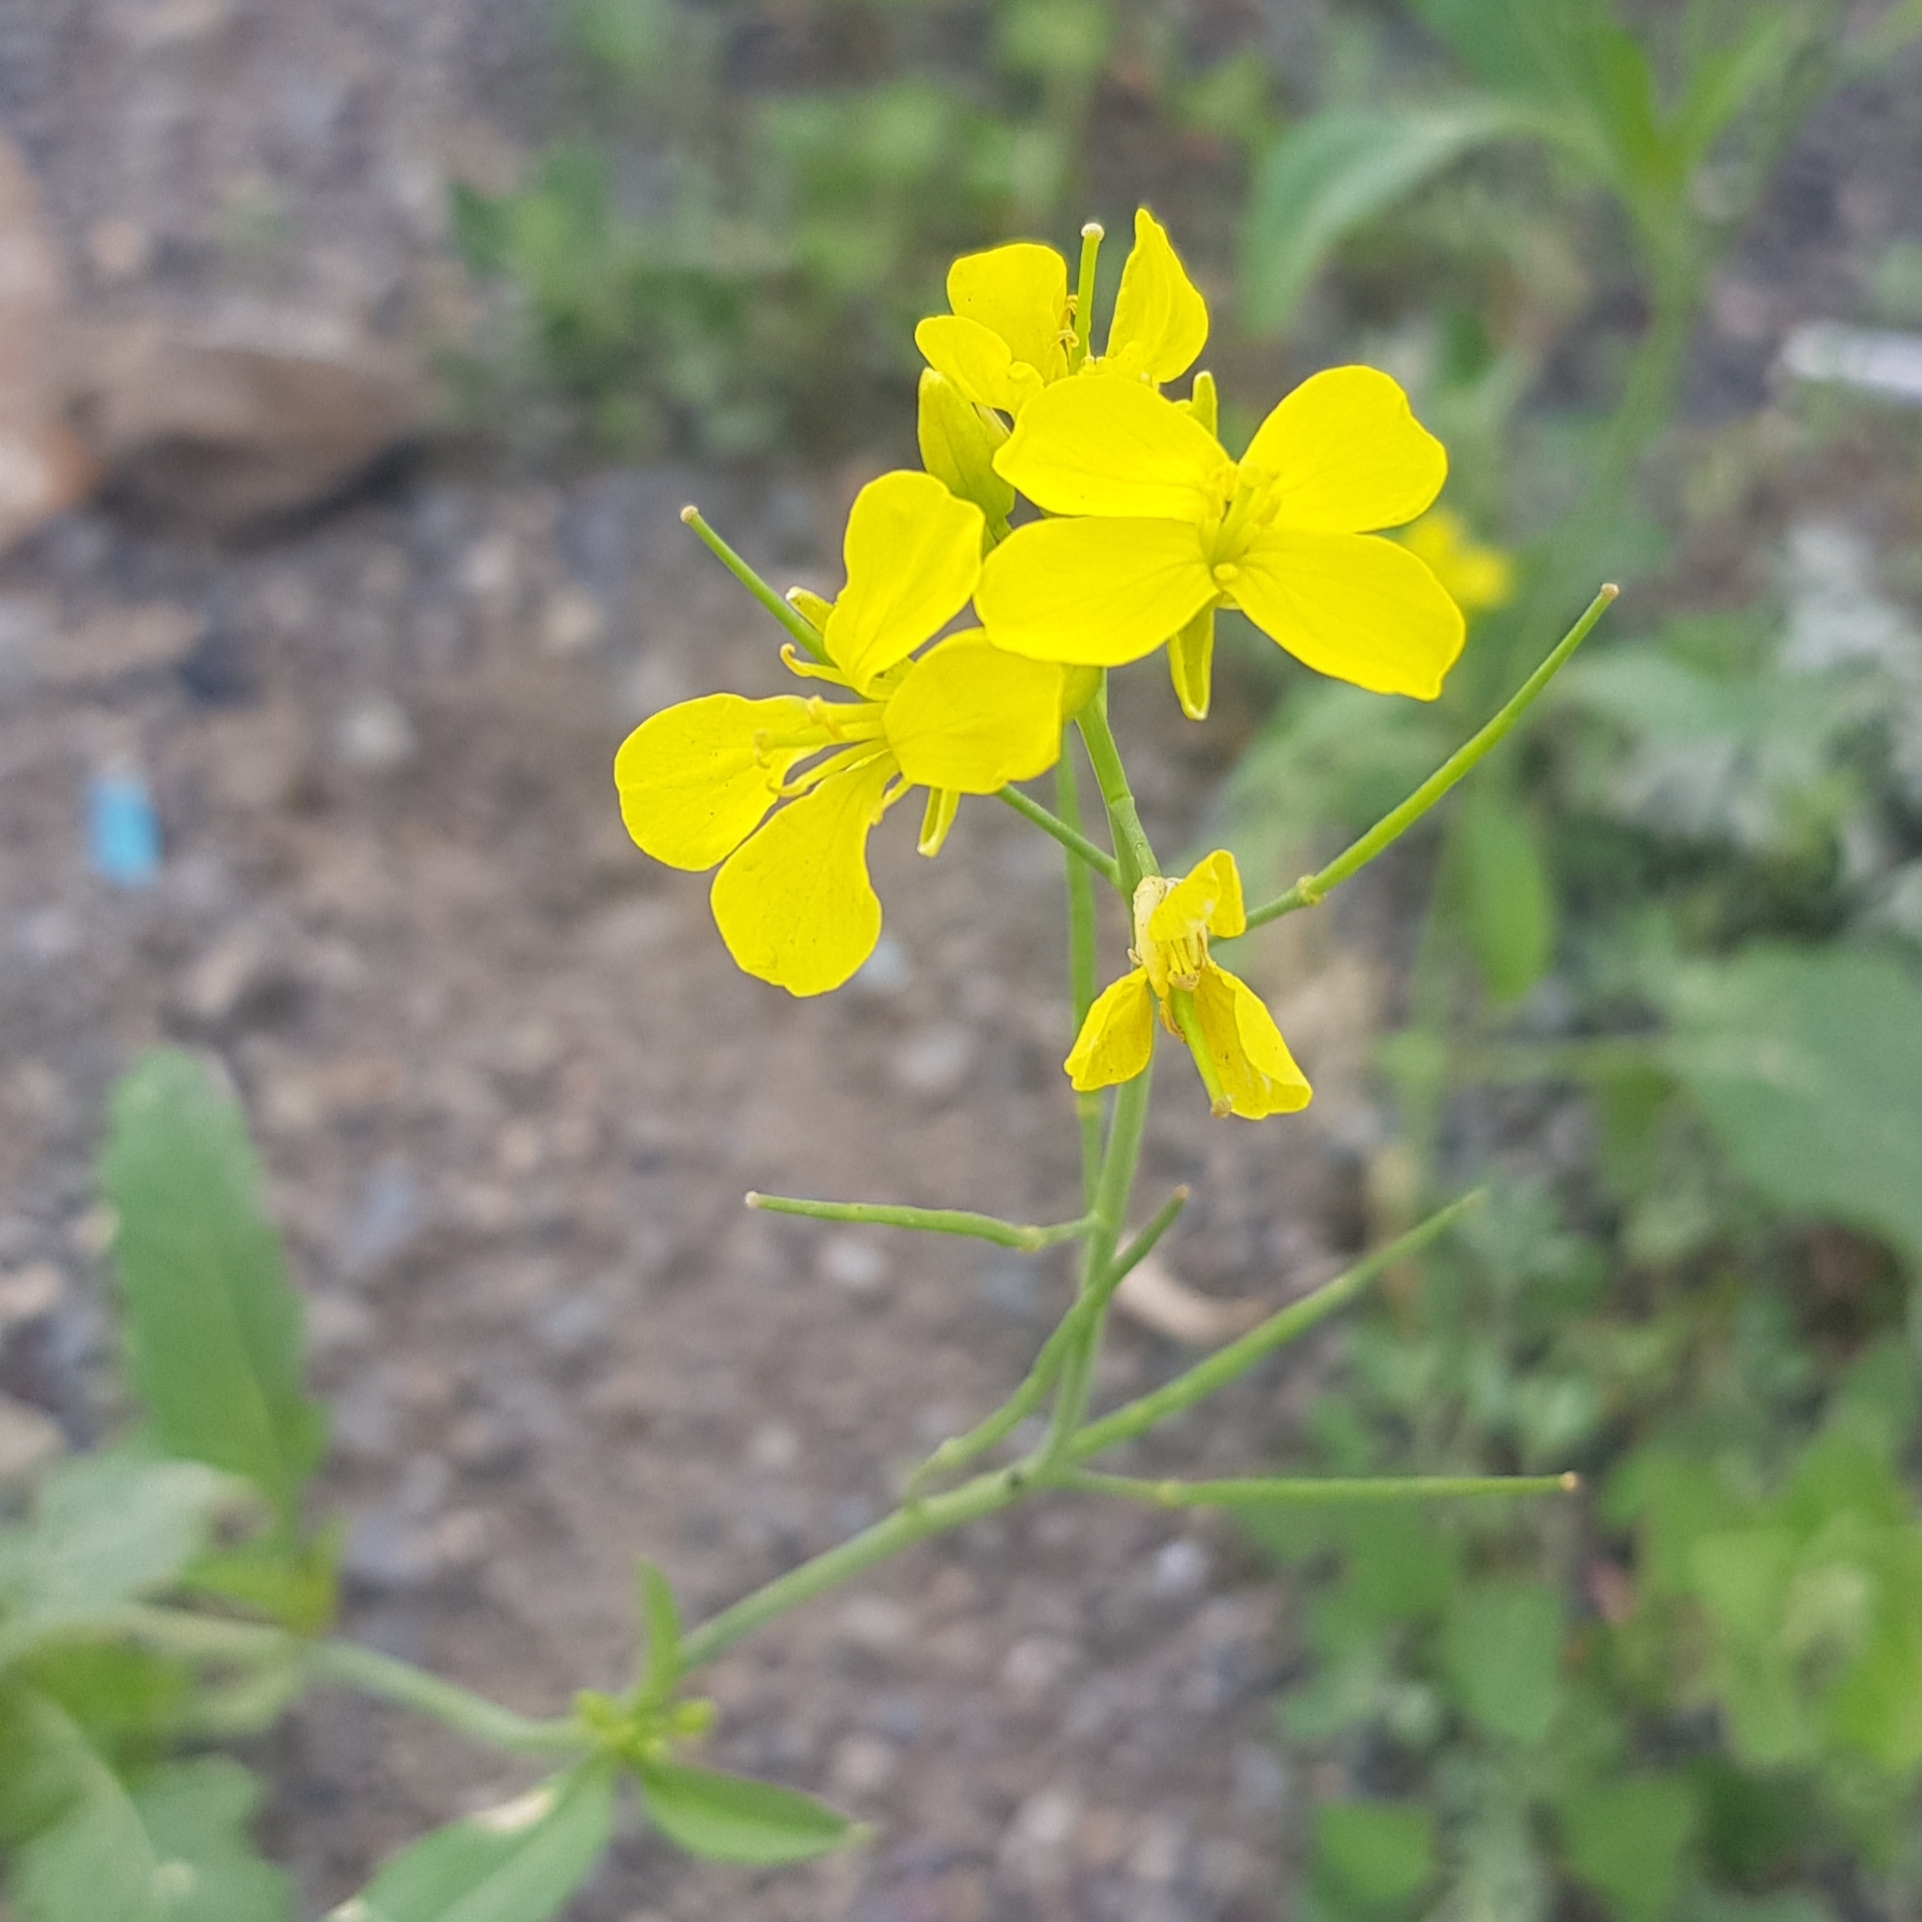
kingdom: Plantae
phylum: Tracheophyta
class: Magnoliopsida
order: Brassicales
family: Brassicaceae
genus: Brassica
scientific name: Brassica napus
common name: Rape
